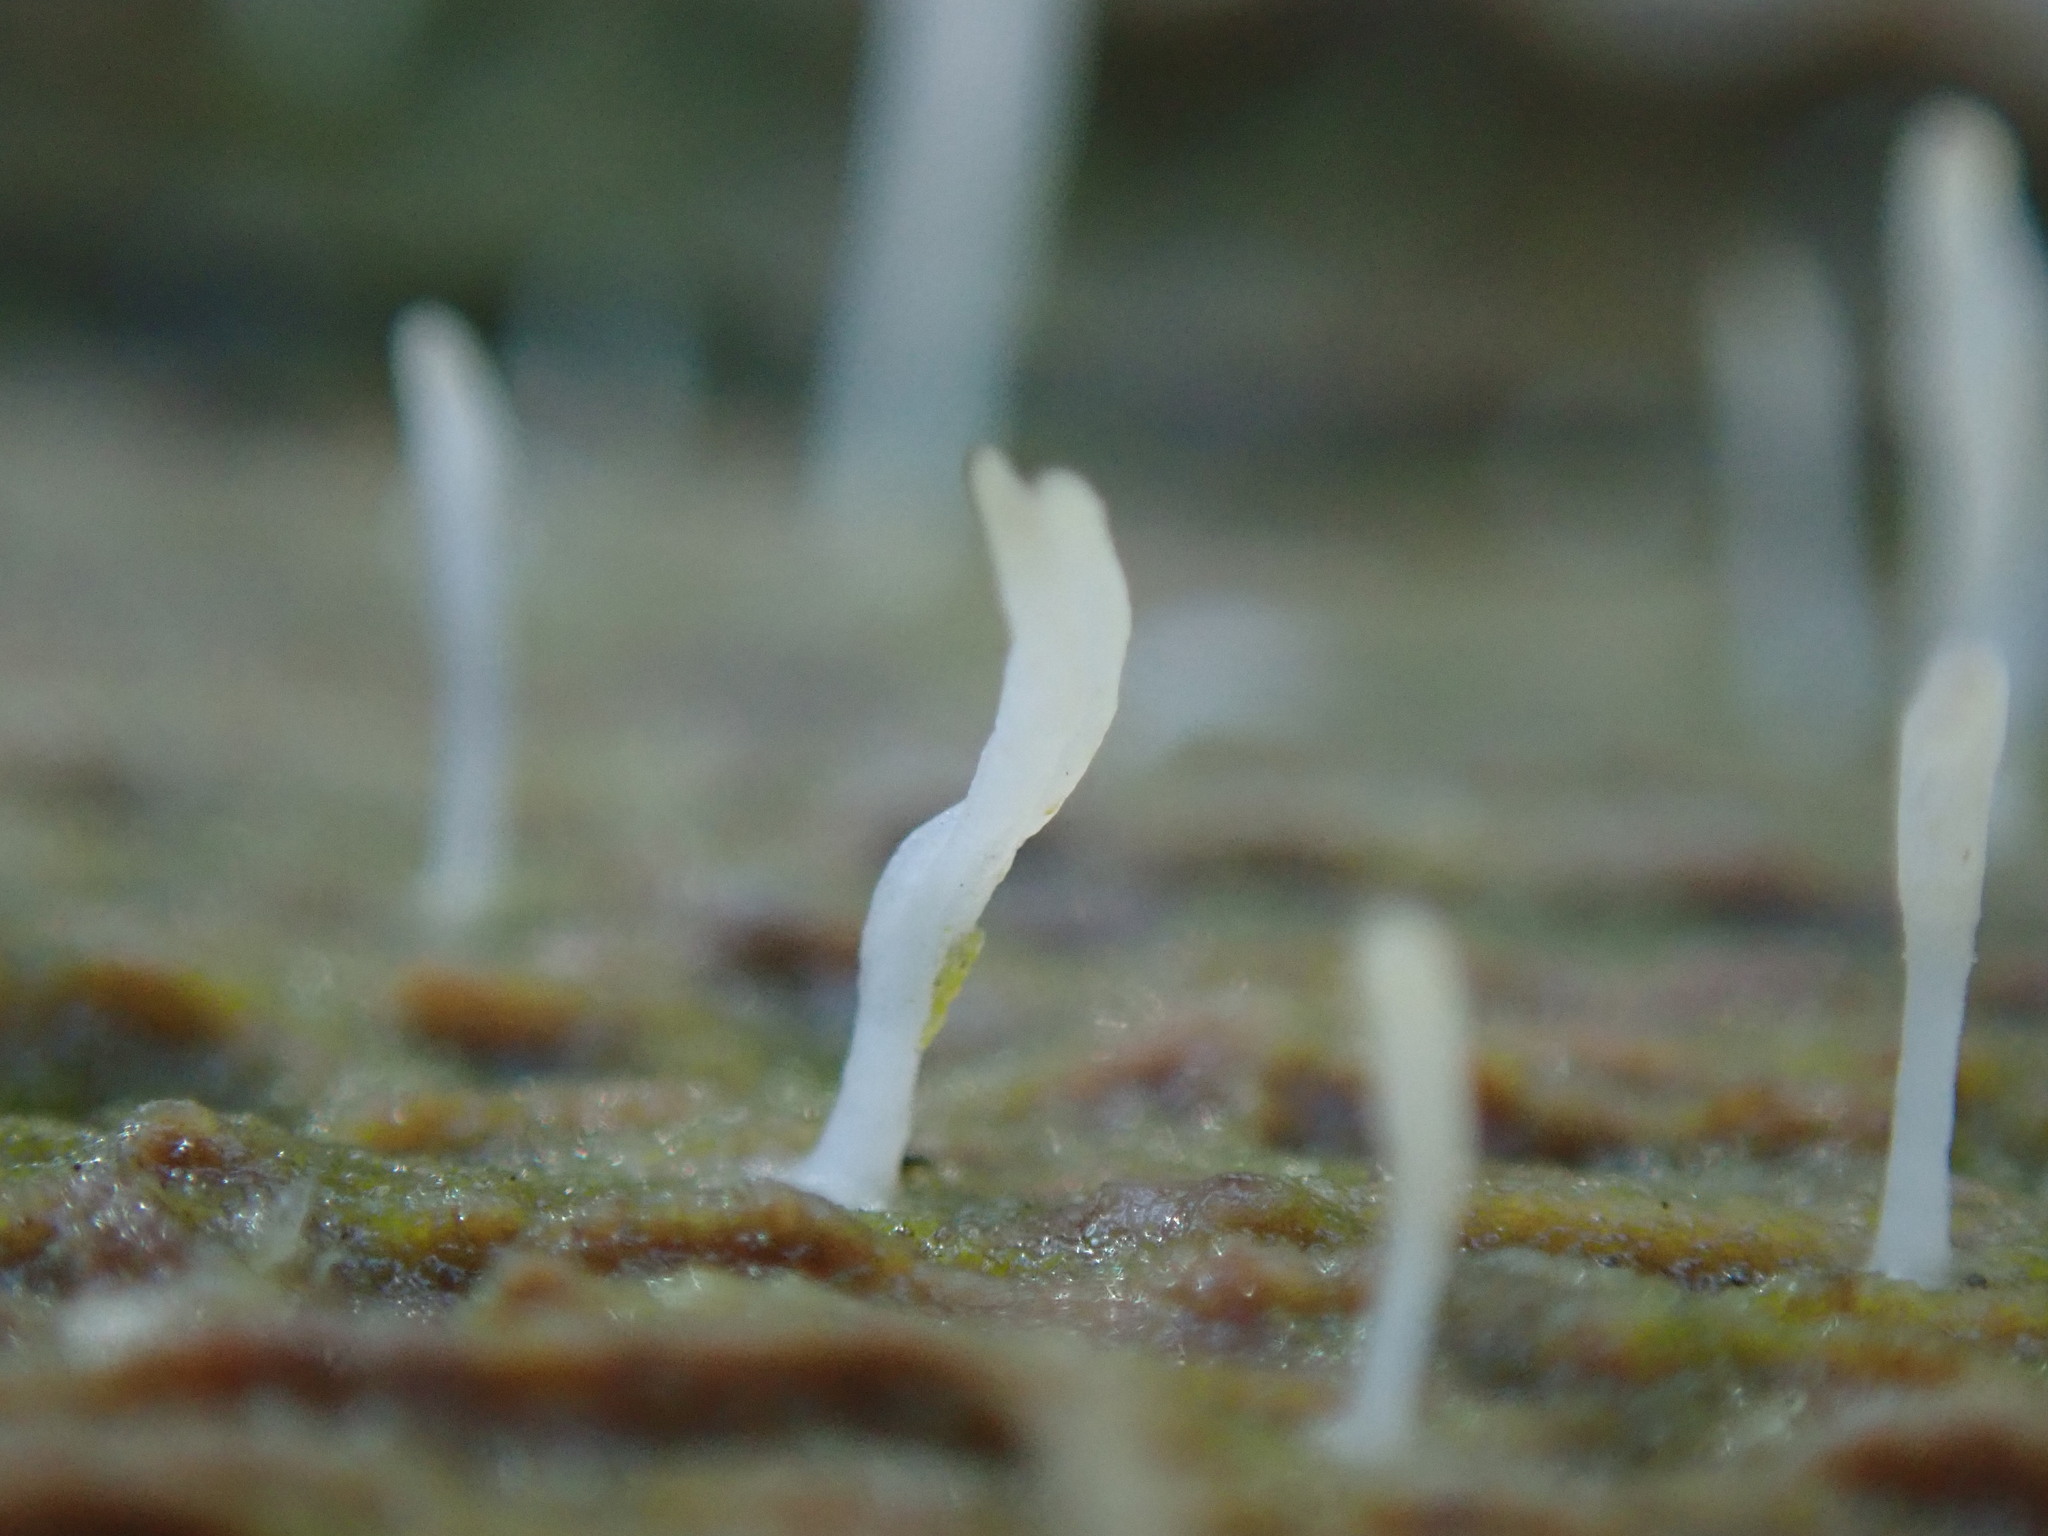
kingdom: Fungi
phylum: Basidiomycota
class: Agaricomycetes
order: Cantharellales
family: Hydnaceae
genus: Multiclavula
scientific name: Multiclavula mucida
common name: White green-algae coral
